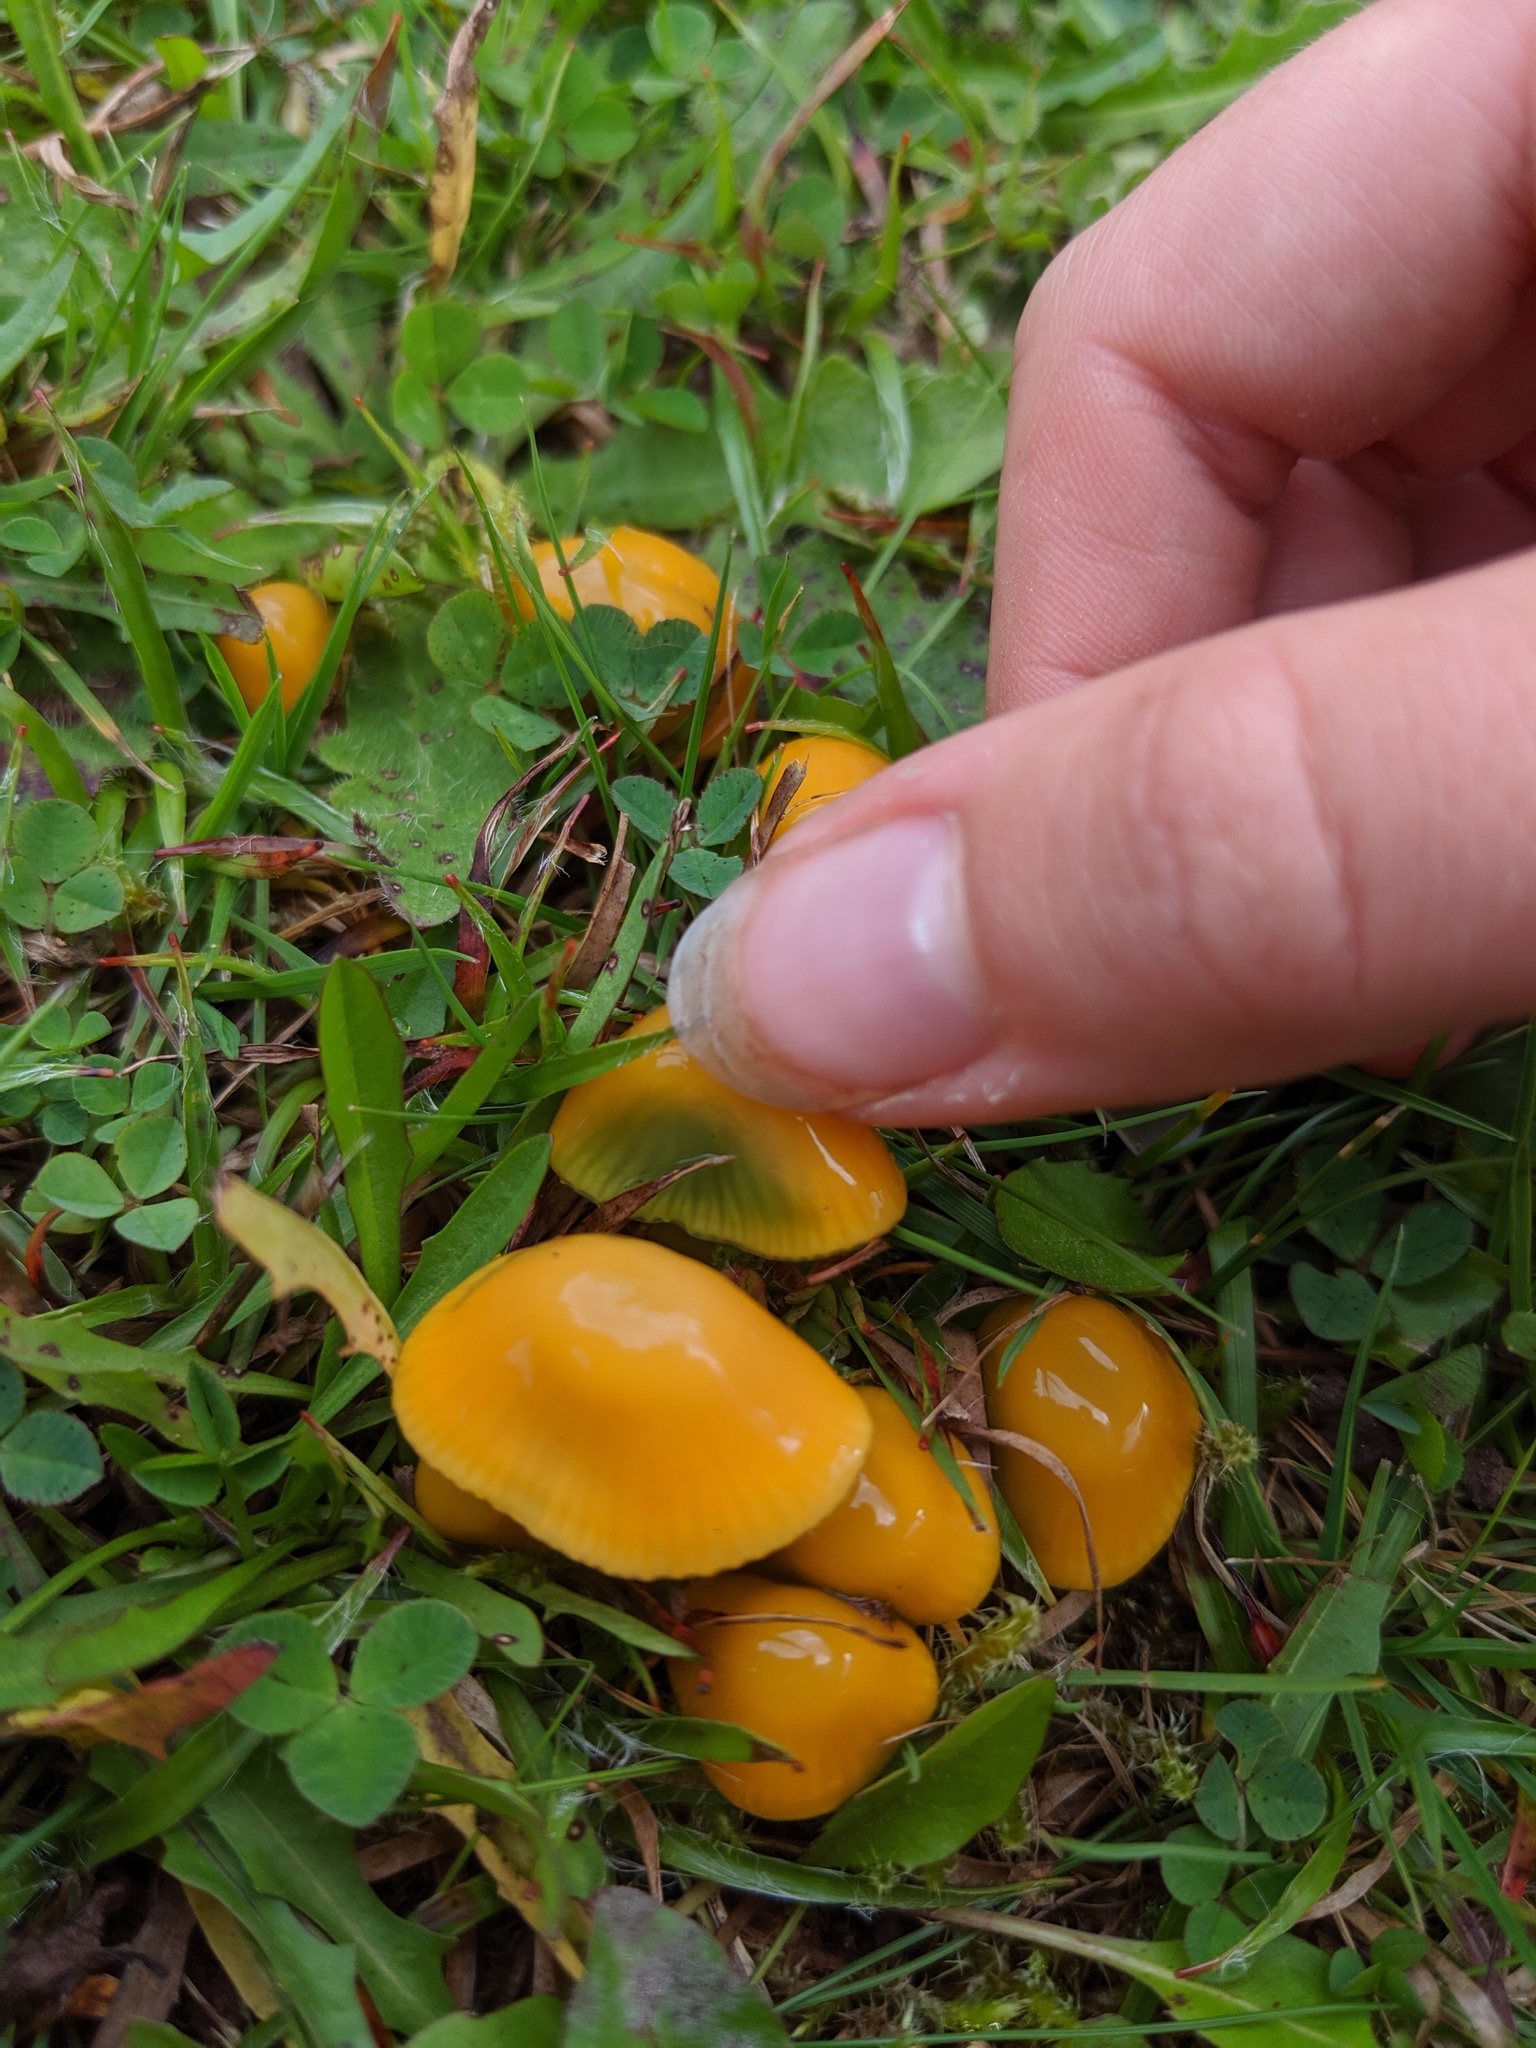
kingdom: Fungi
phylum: Basidiomycota
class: Agaricomycetes
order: Agaricales
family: Hygrophoraceae
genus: Gliophorus
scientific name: Gliophorus psittacinus
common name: Parrot wax-cap
